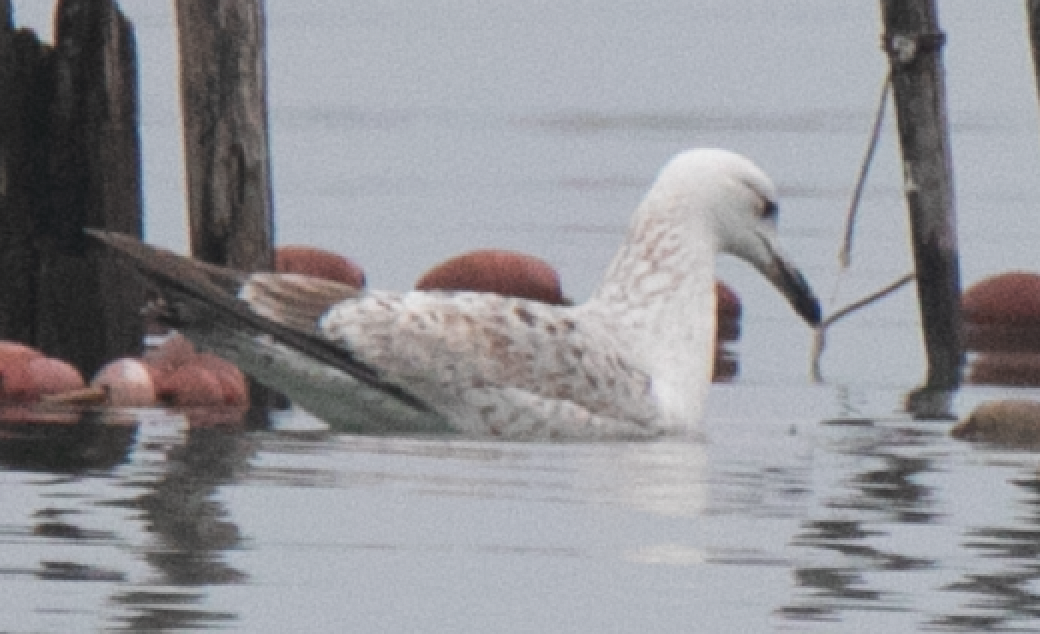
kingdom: Animalia
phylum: Chordata
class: Aves
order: Charadriiformes
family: Laridae
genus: Larus
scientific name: Larus cachinnans
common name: Caspian gull
